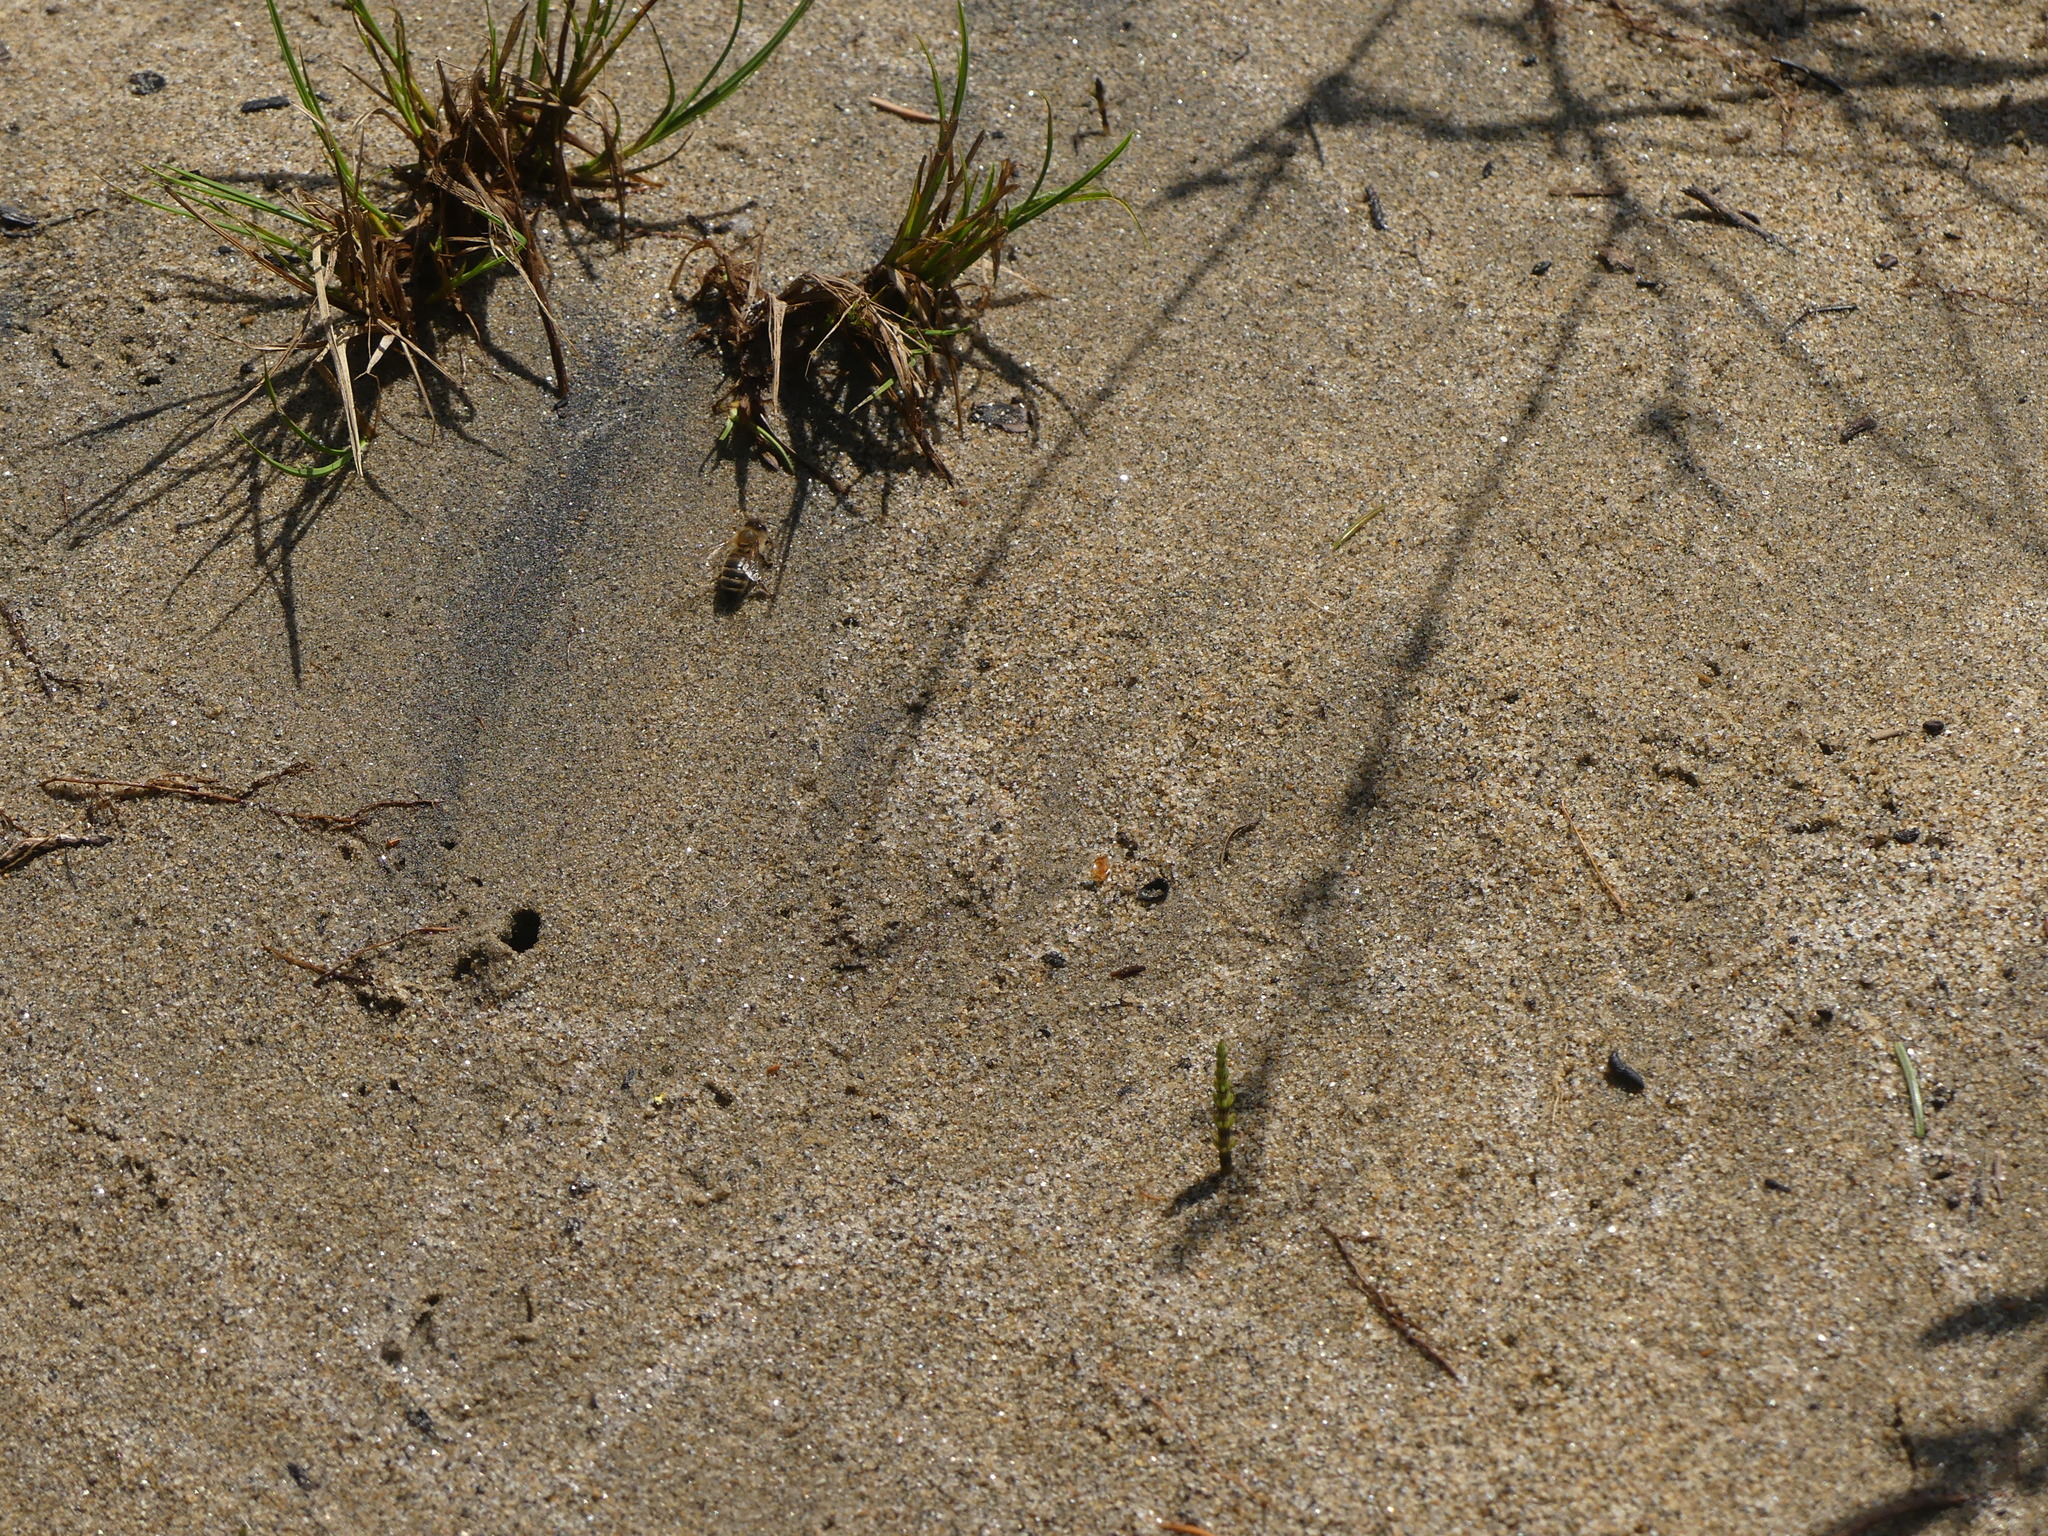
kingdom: Animalia
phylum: Arthropoda
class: Insecta
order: Hymenoptera
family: Apidae
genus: Apis
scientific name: Apis mellifera
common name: Honey bee
